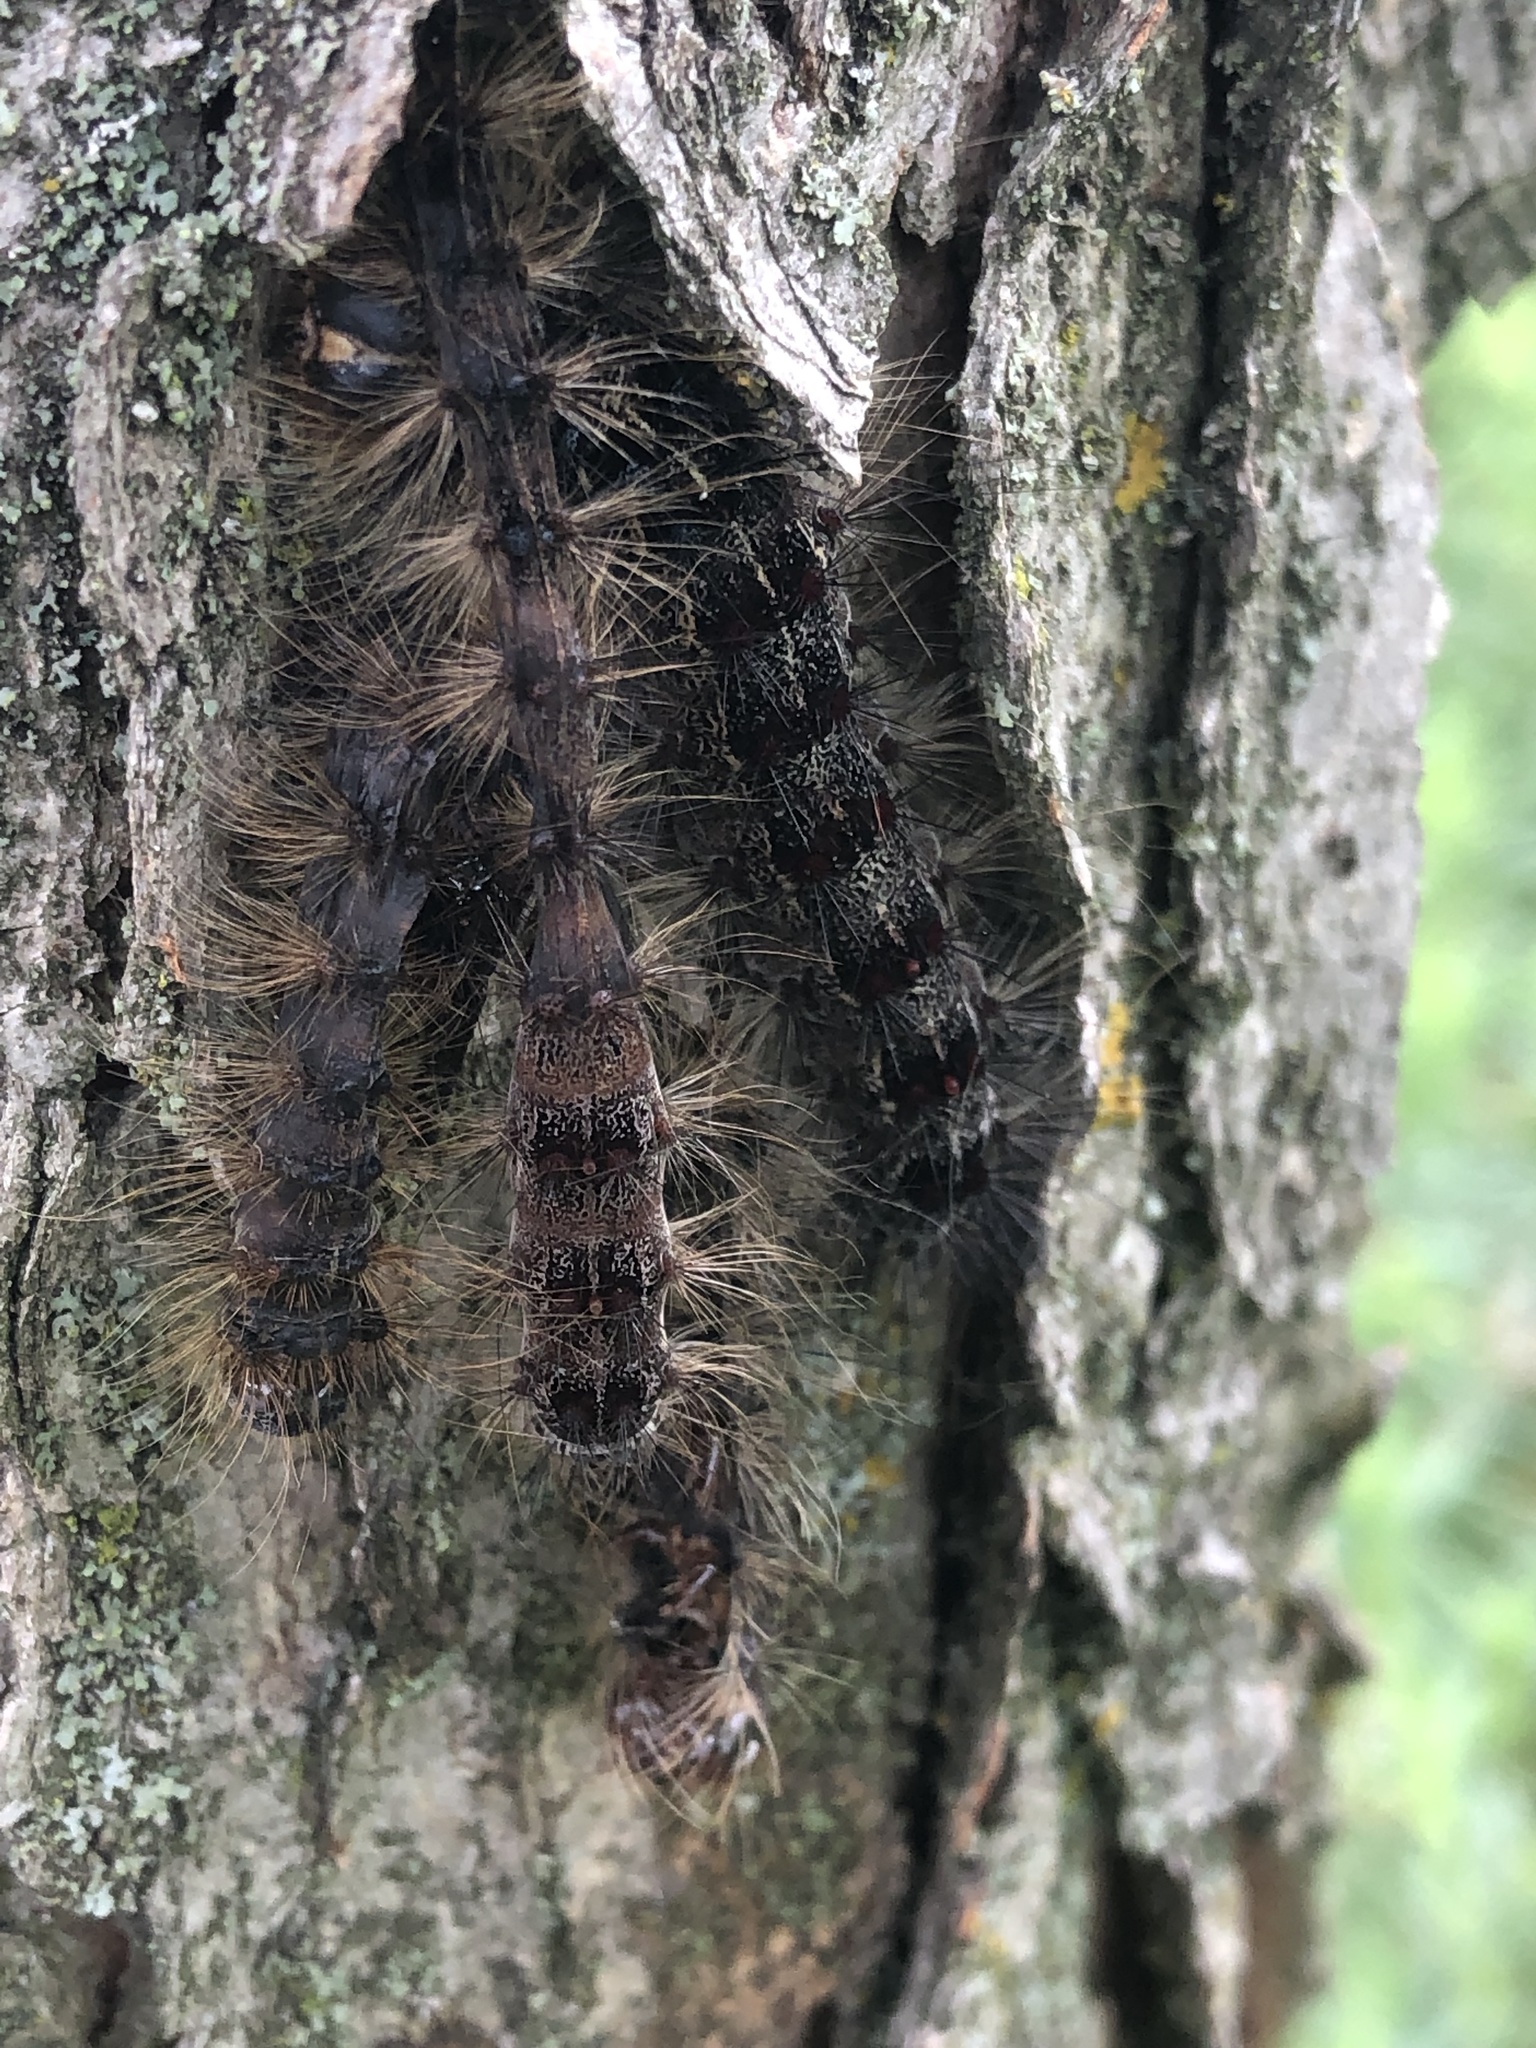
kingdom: Animalia
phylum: Arthropoda
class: Insecta
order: Lepidoptera
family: Erebidae
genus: Lymantria
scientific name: Lymantria dispar
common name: Gypsy moth
